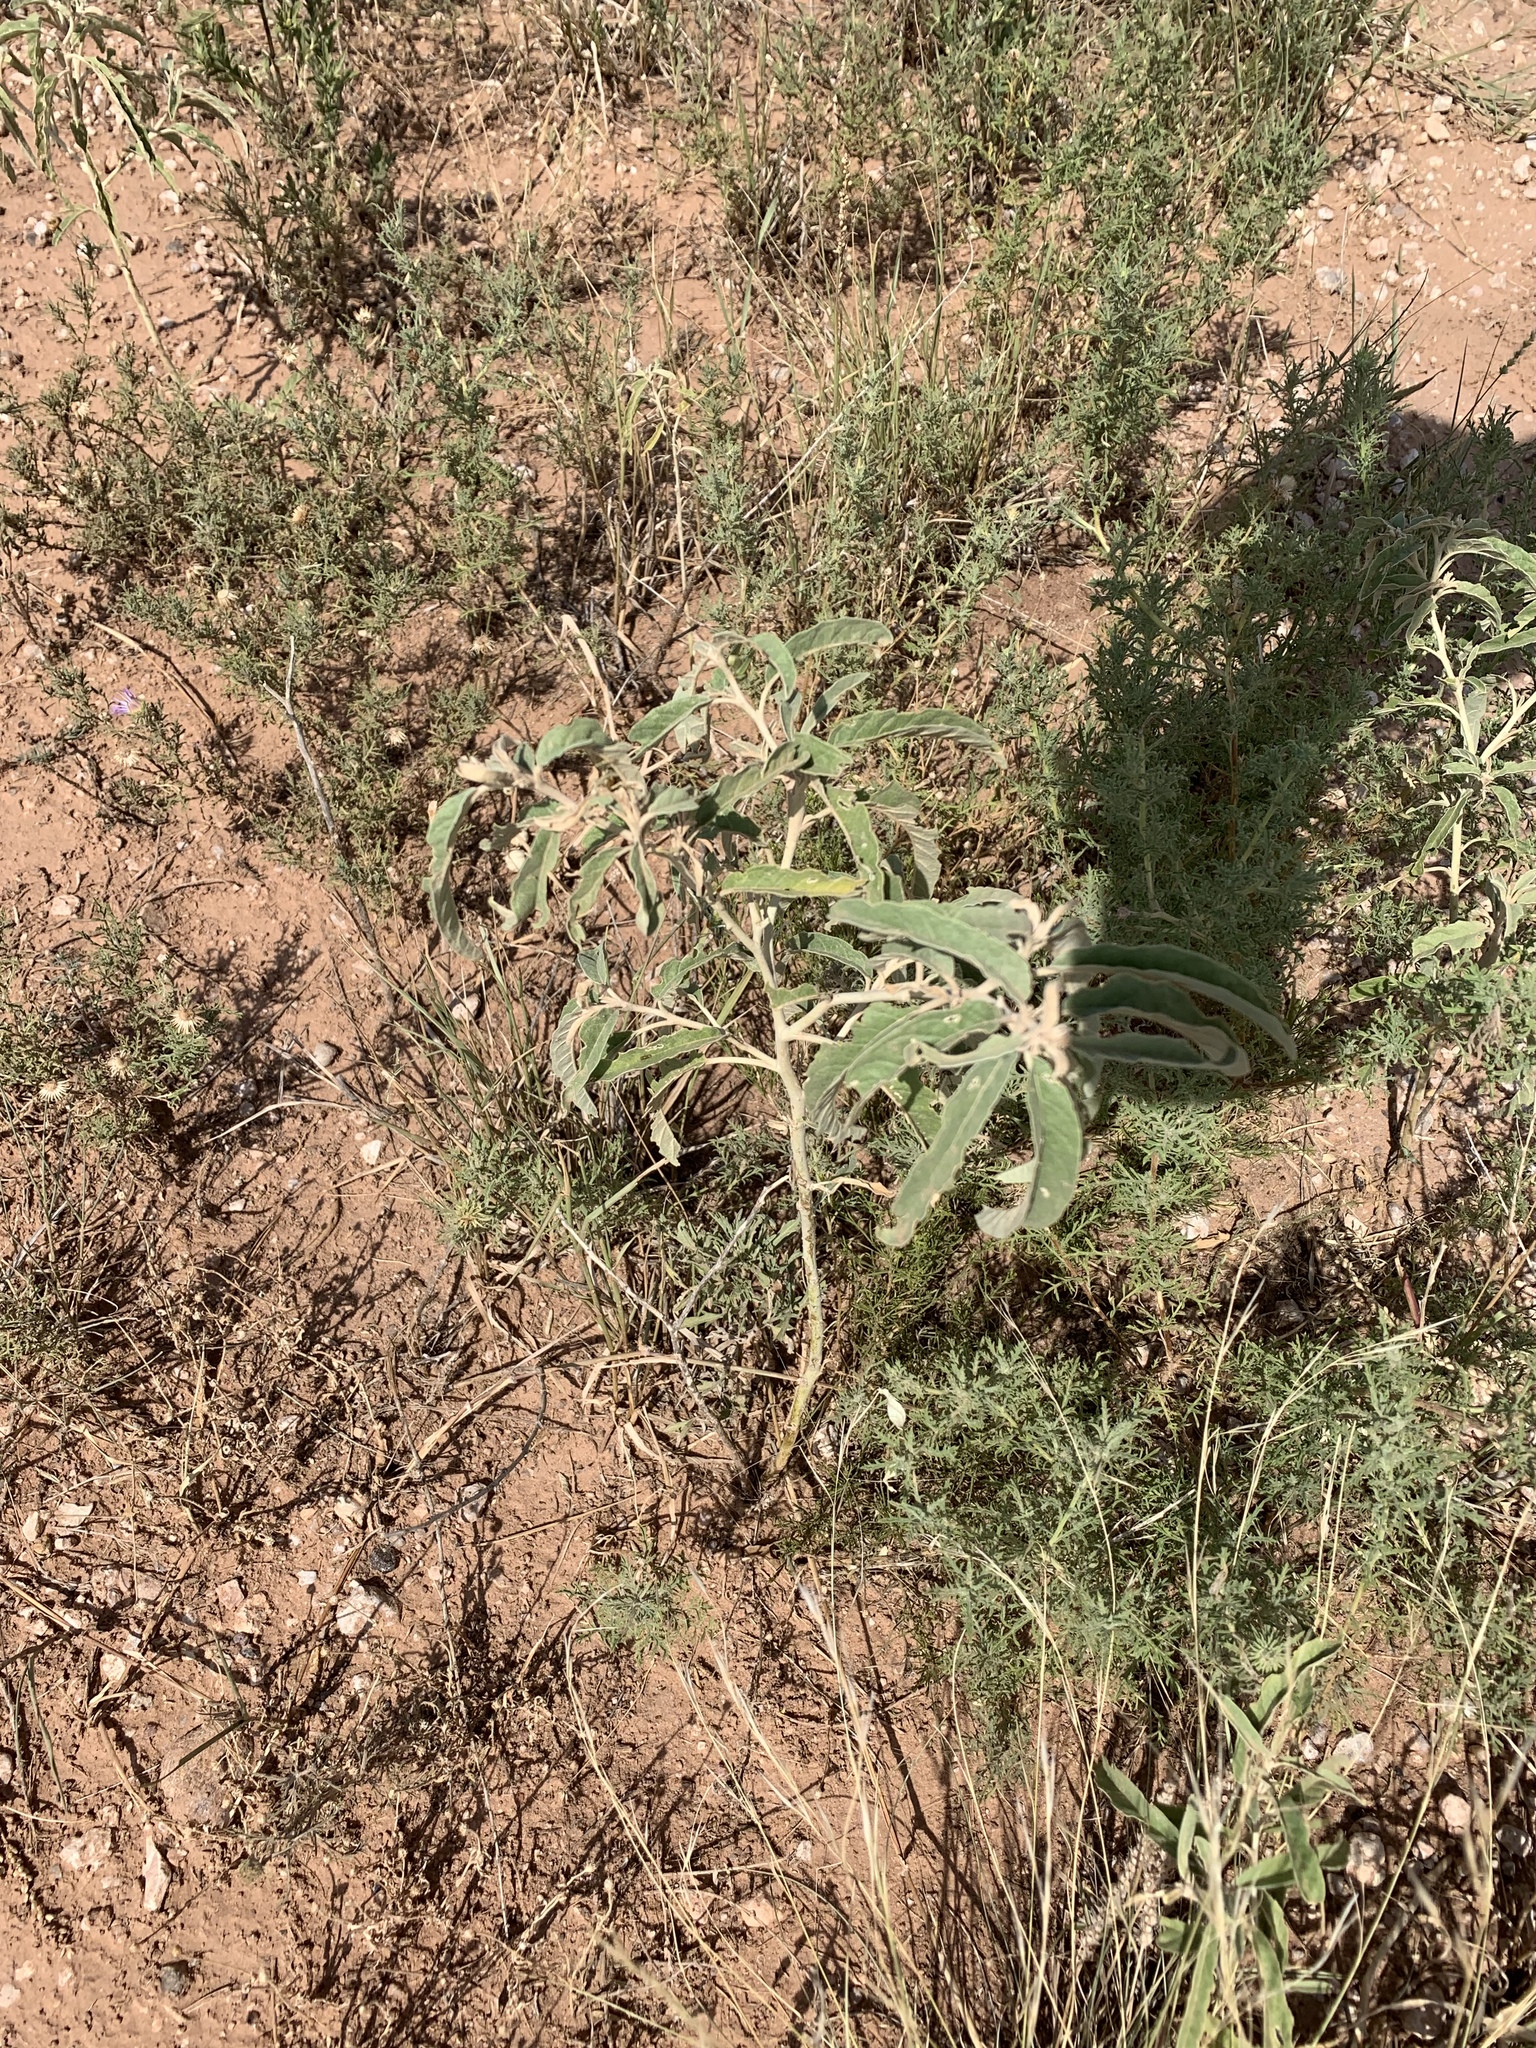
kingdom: Plantae
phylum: Tracheophyta
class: Magnoliopsida
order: Solanales
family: Solanaceae
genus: Solanum
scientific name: Solanum elaeagnifolium
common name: Silverleaf nightshade
